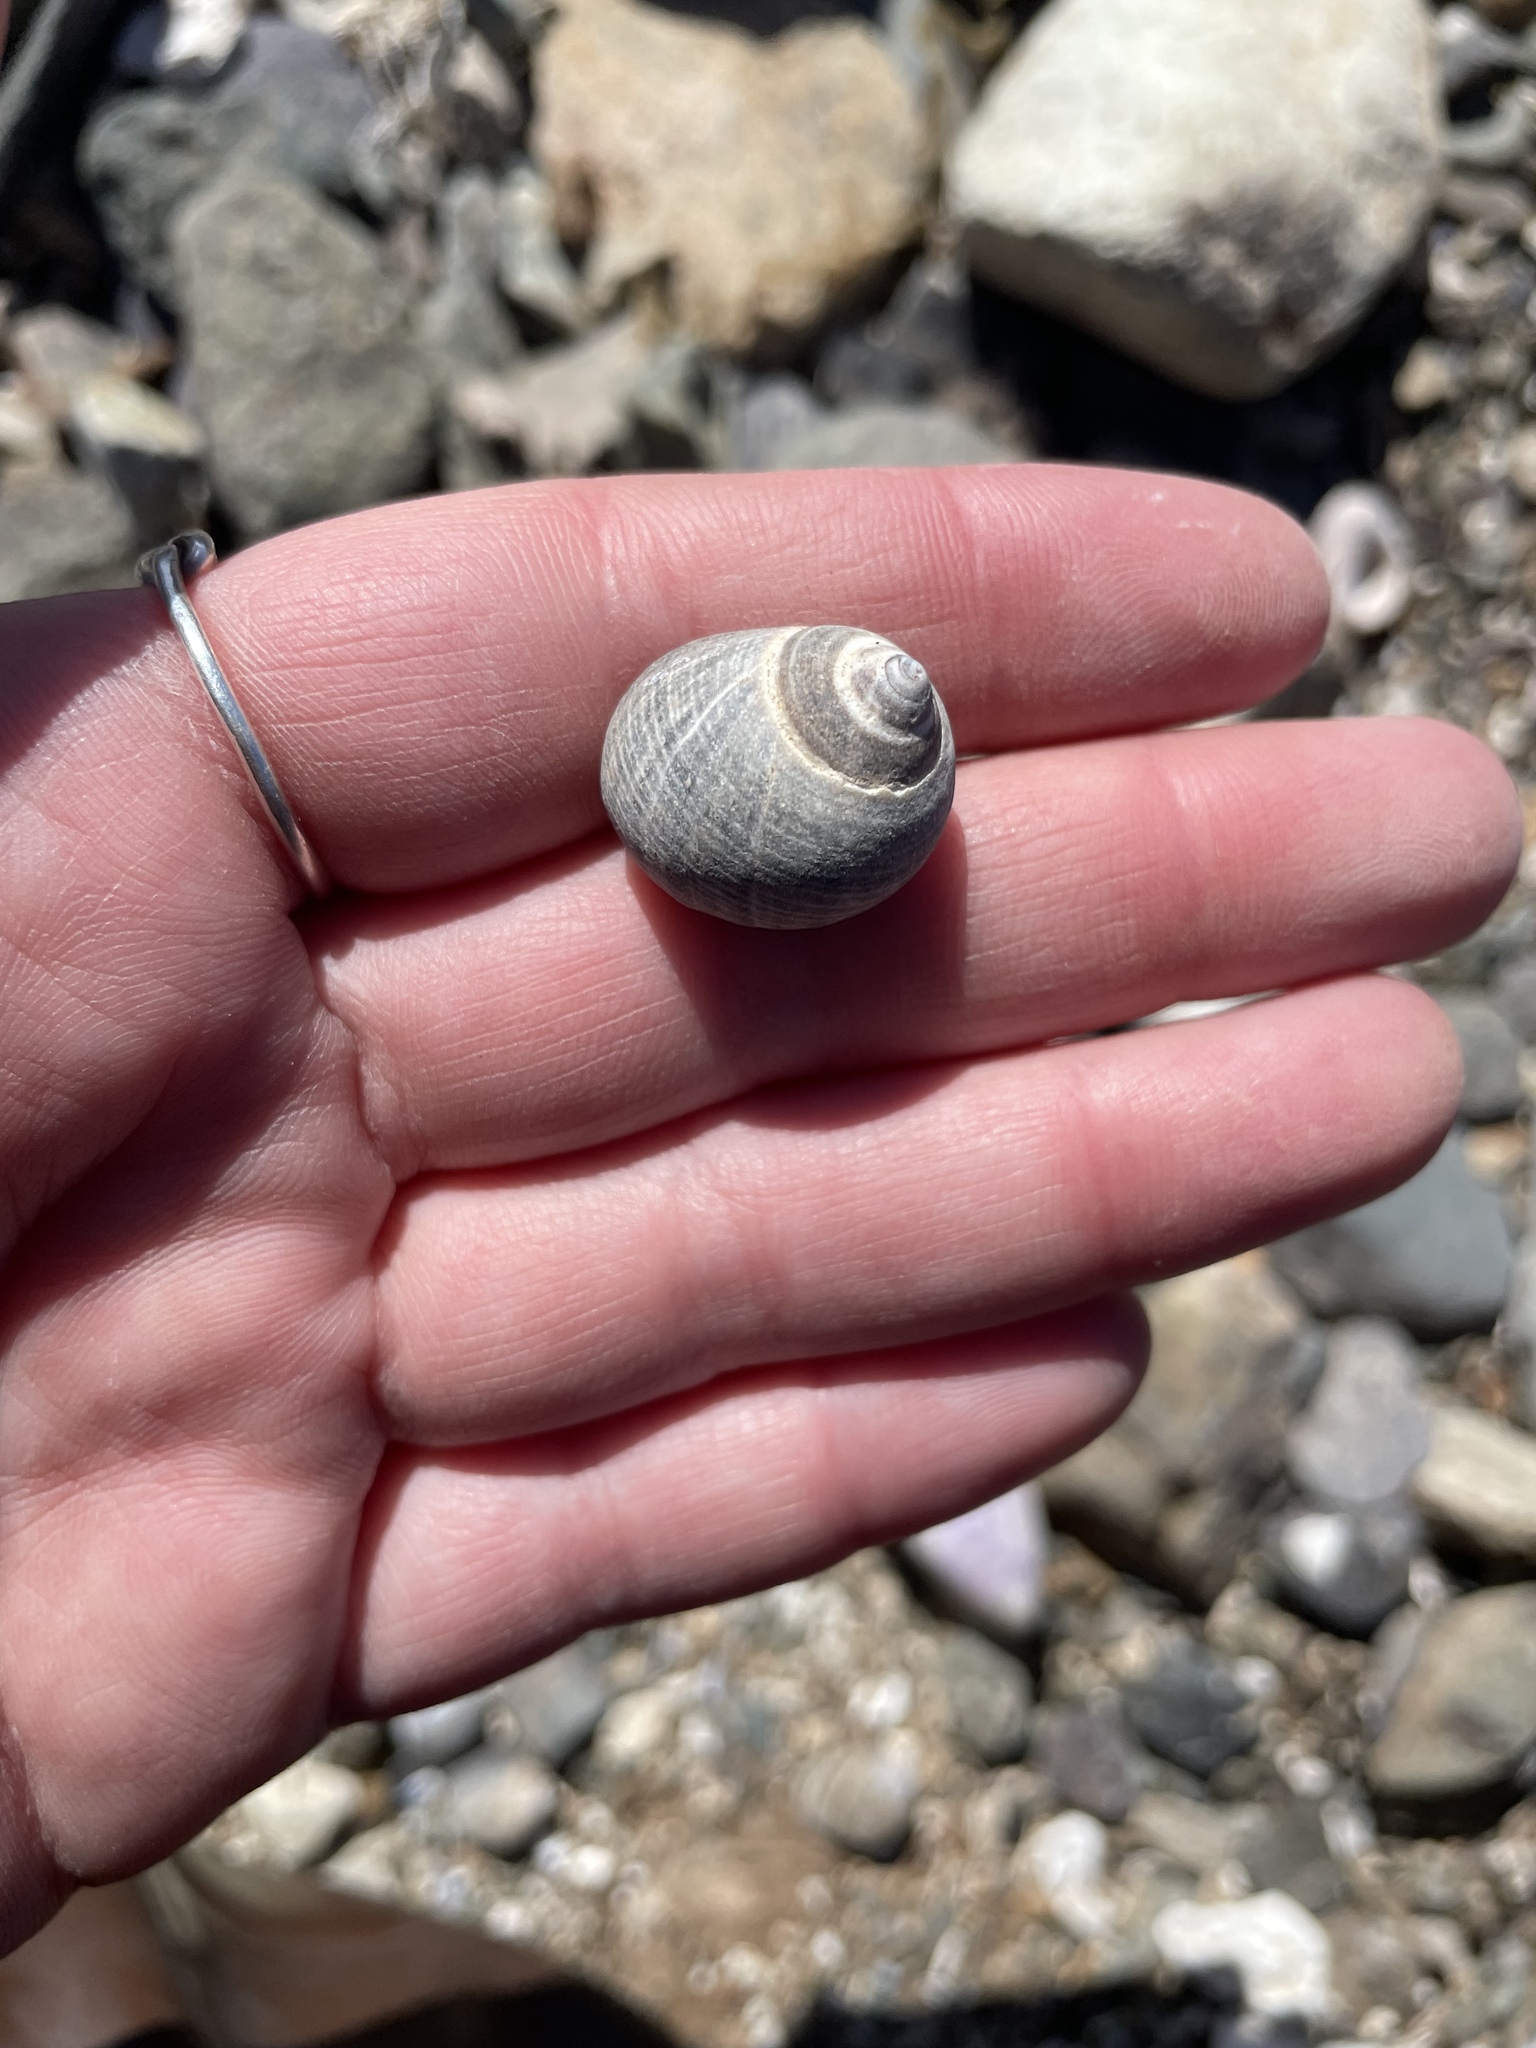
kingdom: Animalia
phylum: Mollusca
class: Gastropoda
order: Littorinimorpha
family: Littorinidae
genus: Littorina
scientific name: Littorina littorea
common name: Common periwinkle
